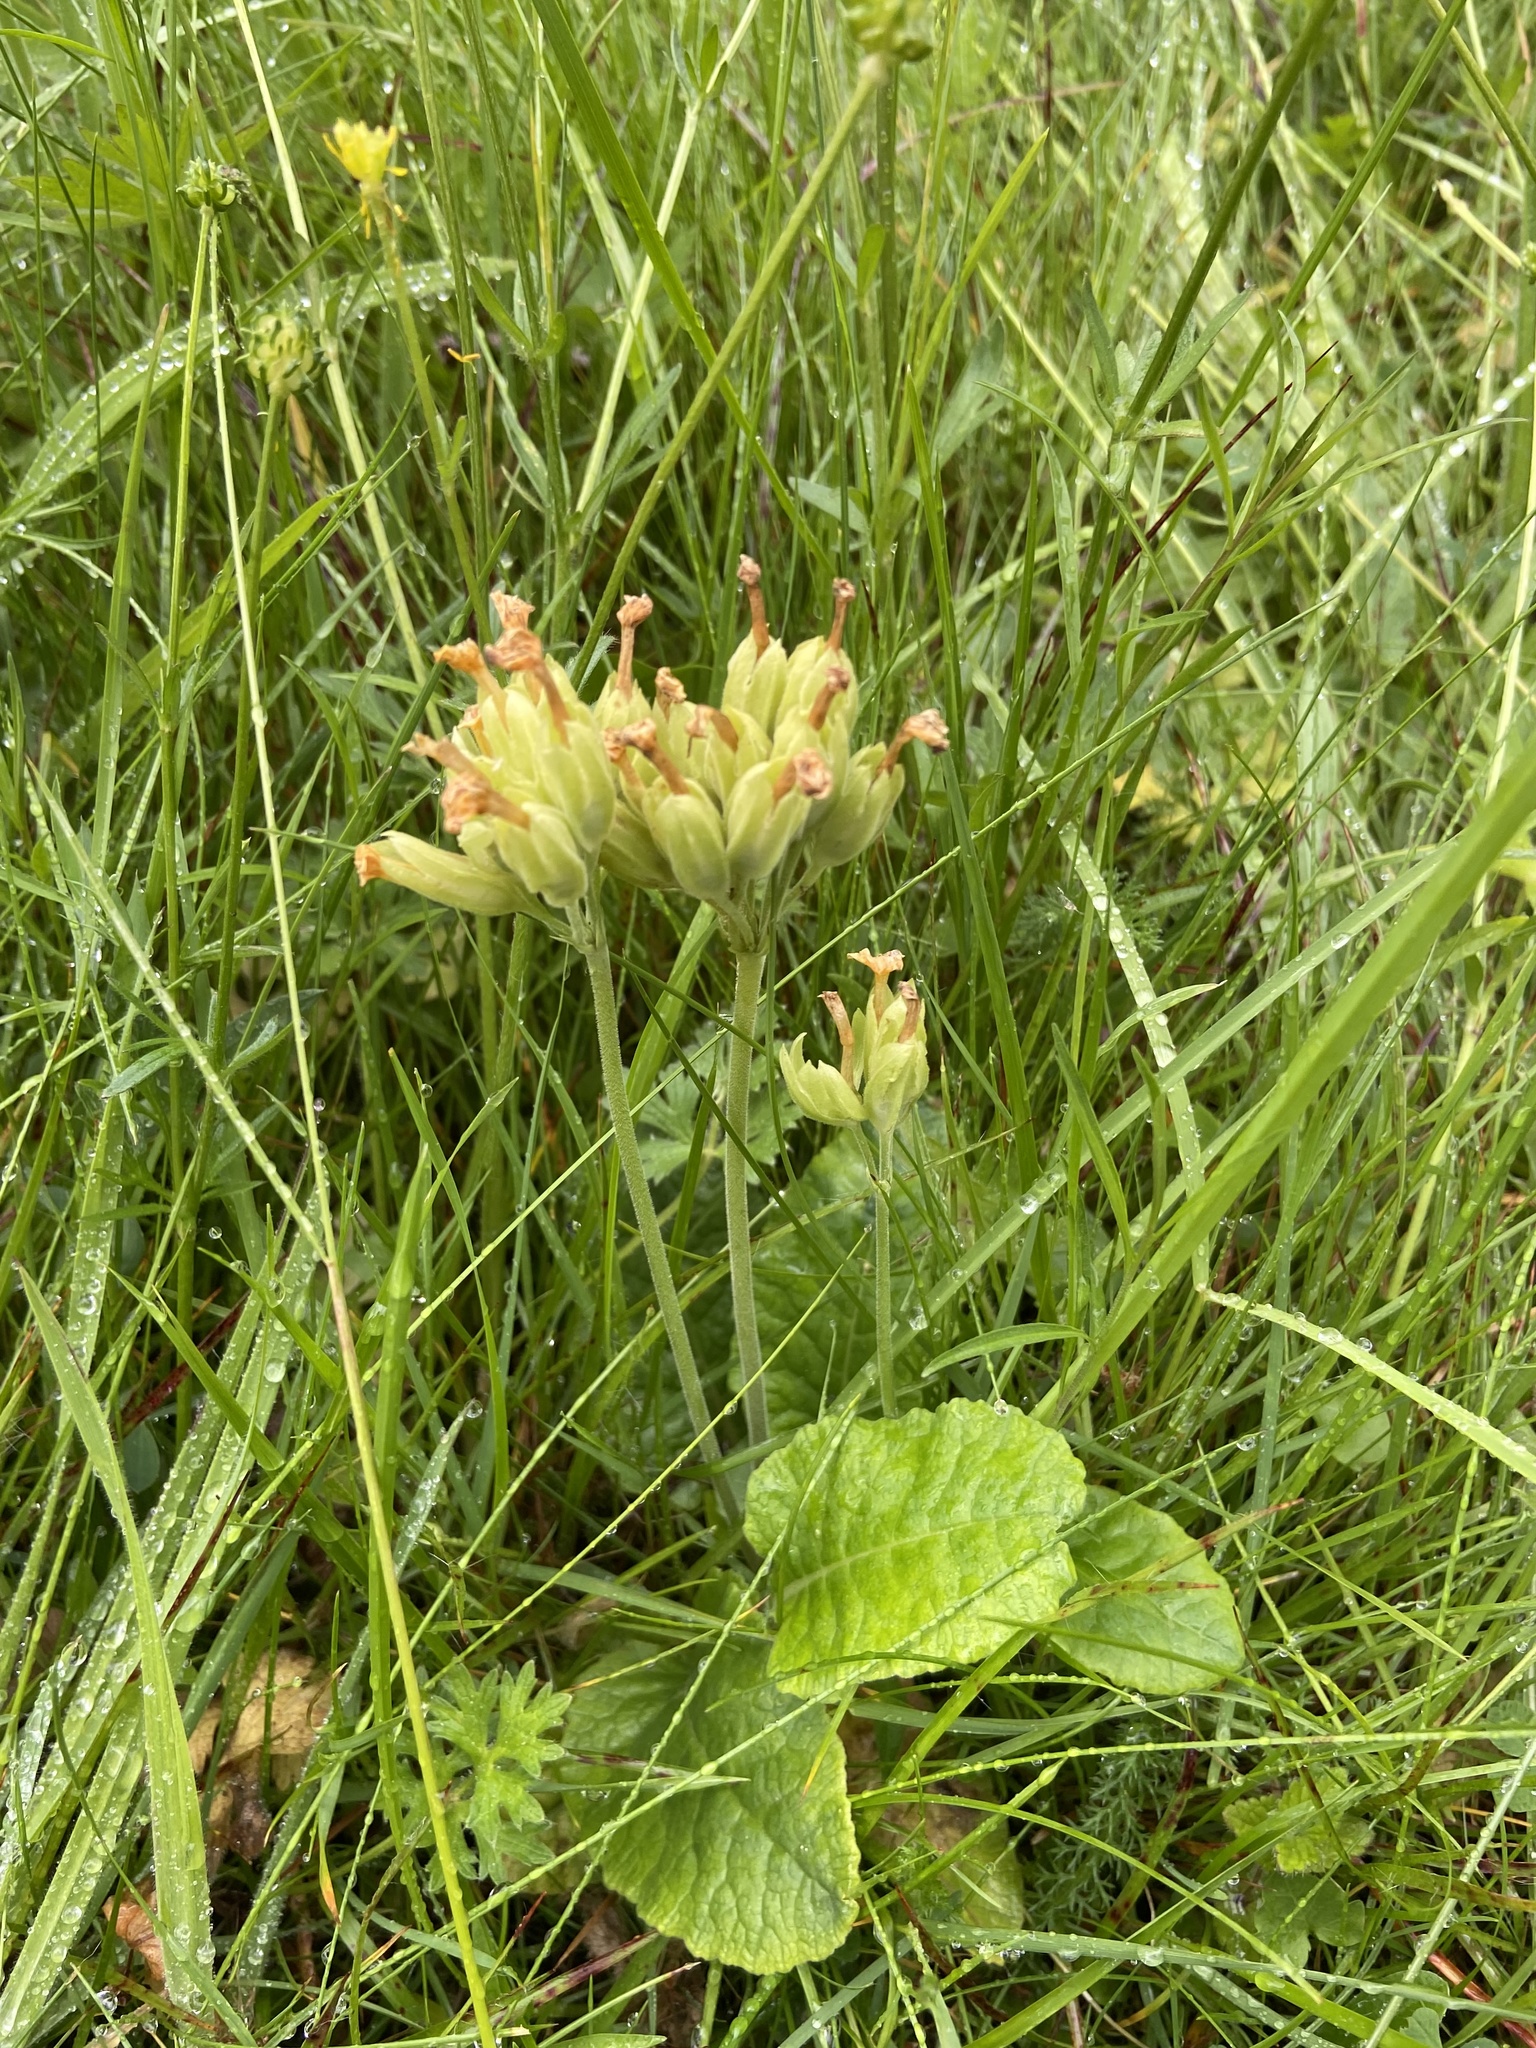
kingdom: Plantae
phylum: Tracheophyta
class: Magnoliopsida
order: Ericales
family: Primulaceae
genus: Primula
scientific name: Primula veris
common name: Cowslip
